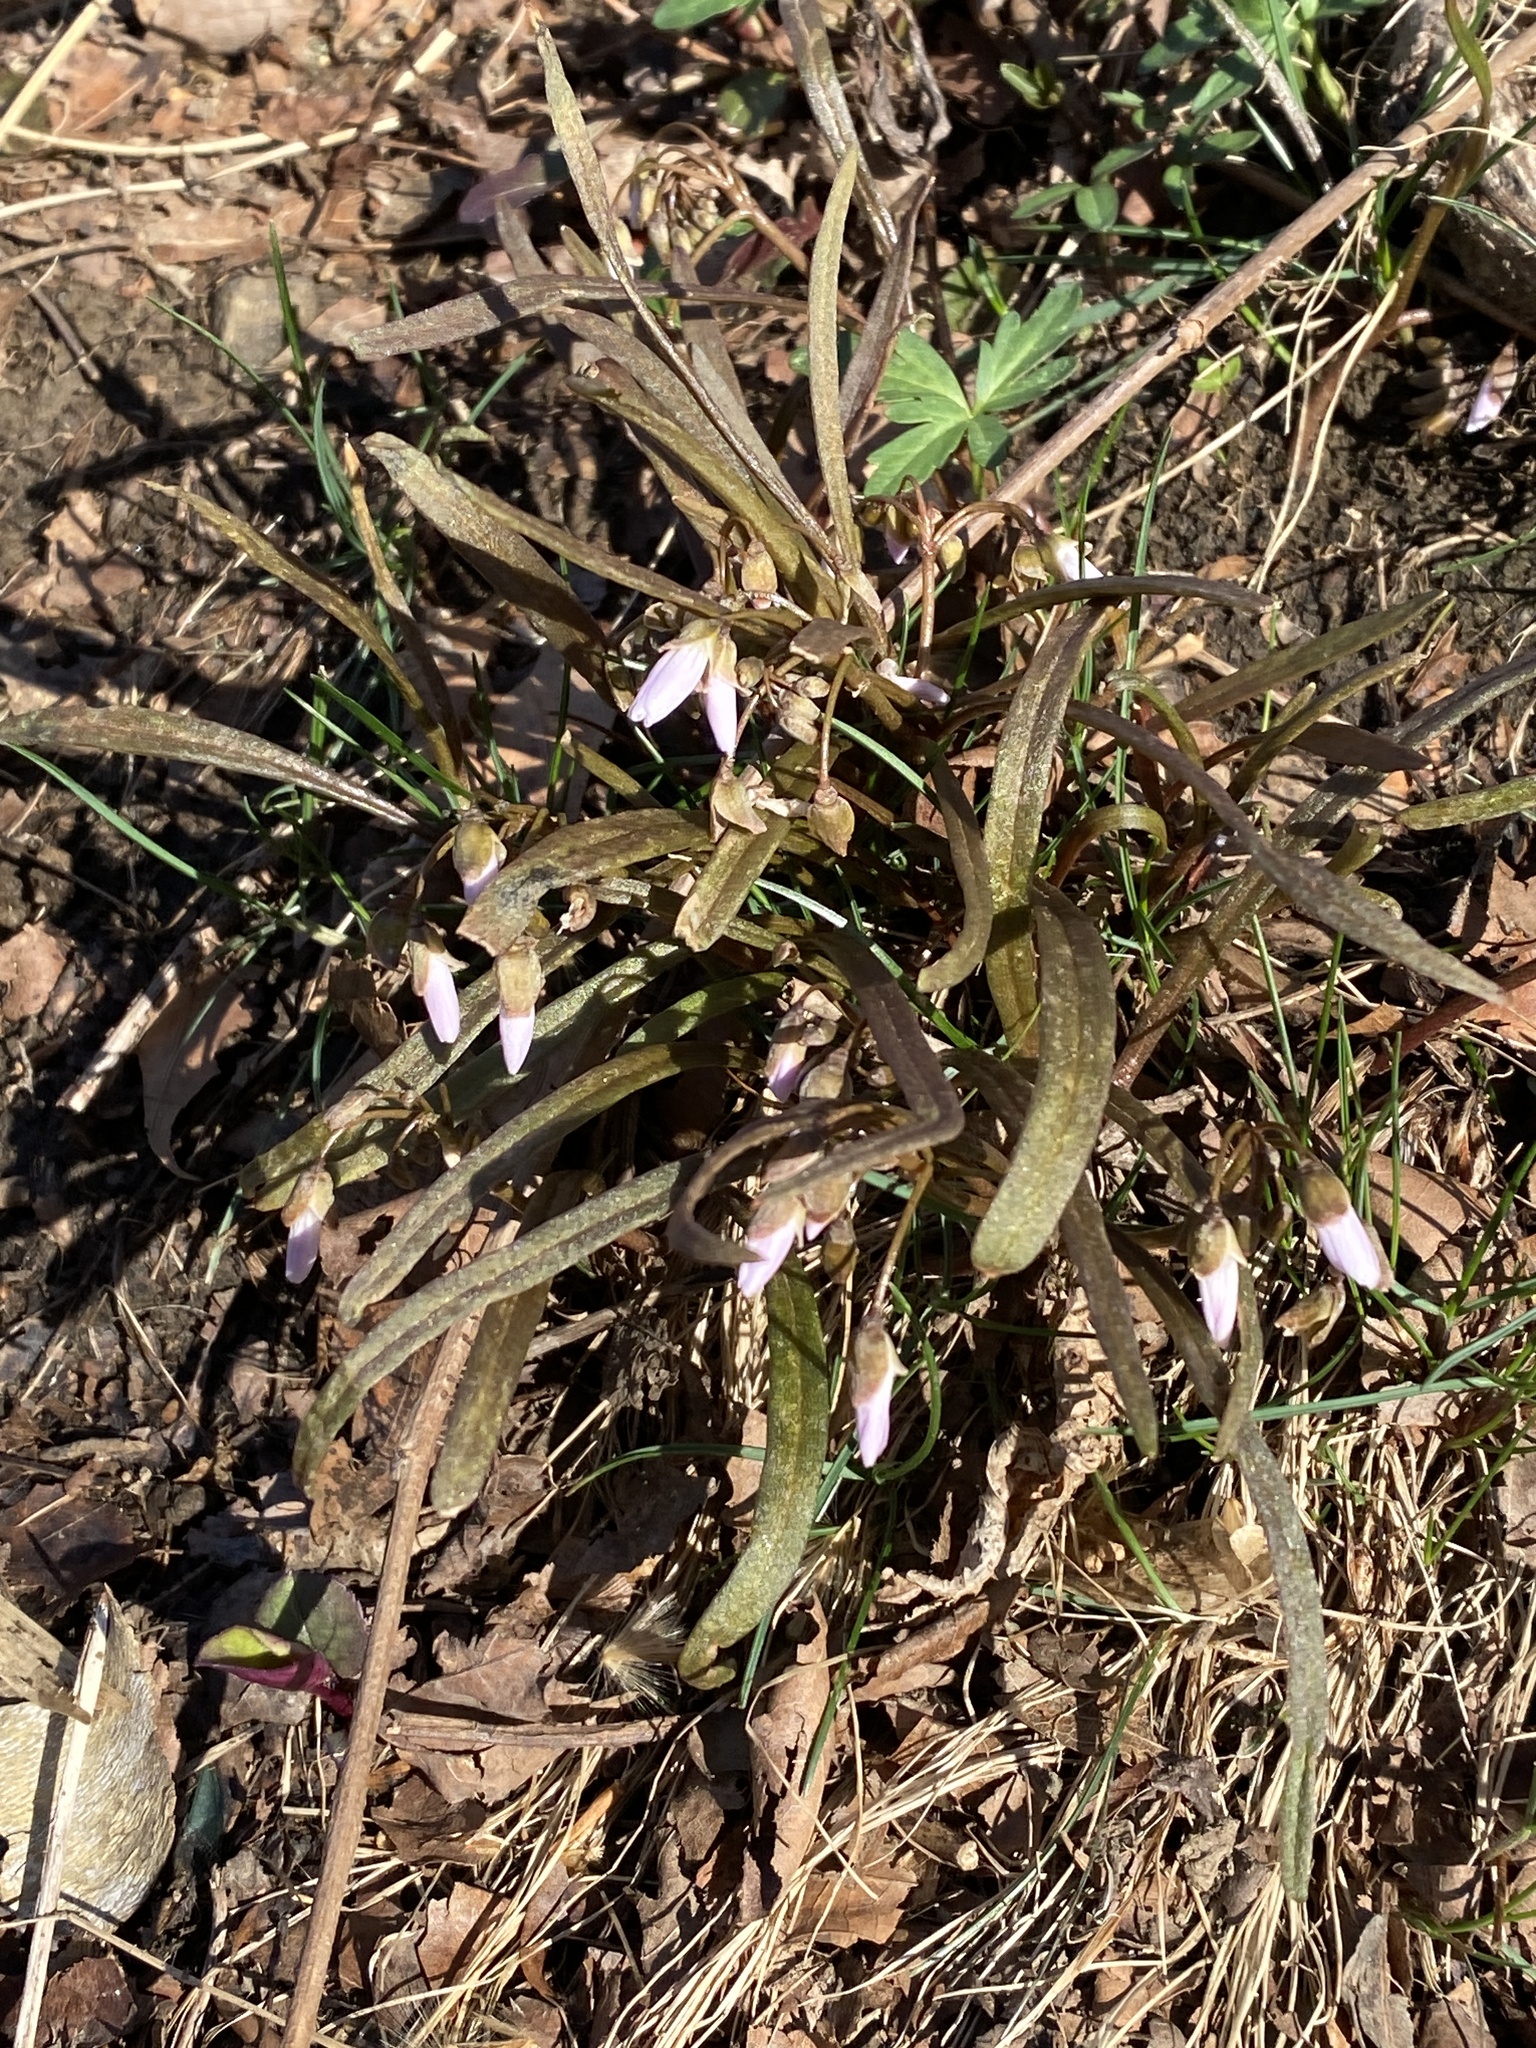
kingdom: Plantae
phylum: Tracheophyta
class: Magnoliopsida
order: Caryophyllales
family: Montiaceae
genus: Claytonia
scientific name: Claytonia virginica
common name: Virginia springbeauty
